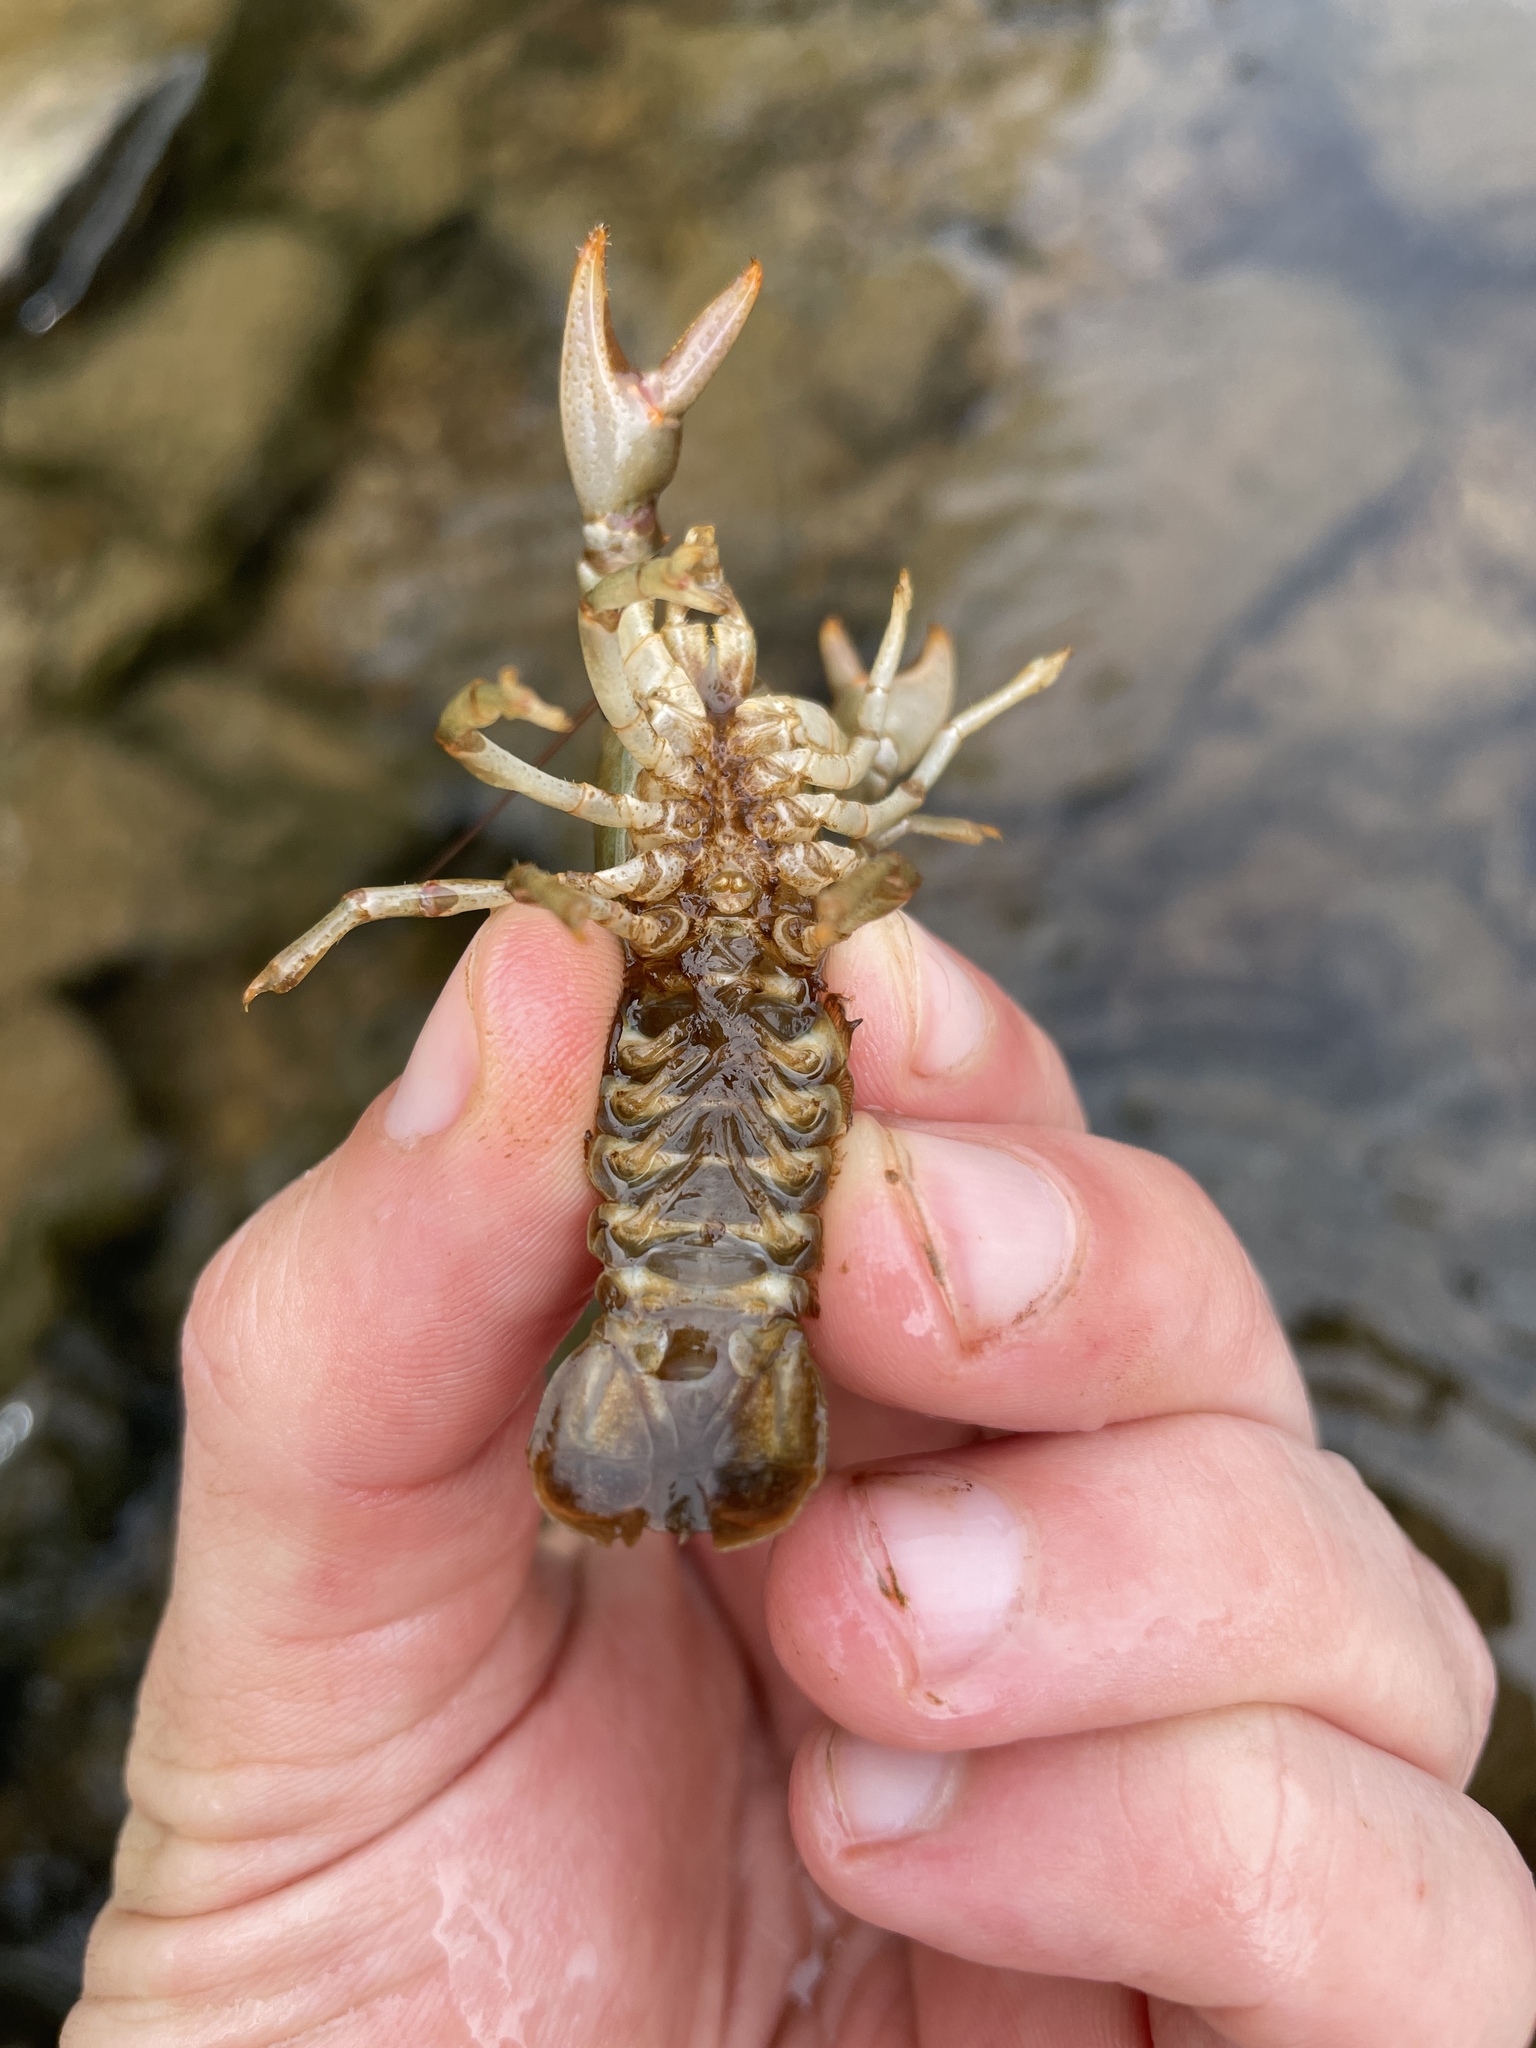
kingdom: Animalia
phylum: Arthropoda
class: Malacostraca
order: Decapoda
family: Cambaridae
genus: Faxonius
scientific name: Faxonius obscurus
